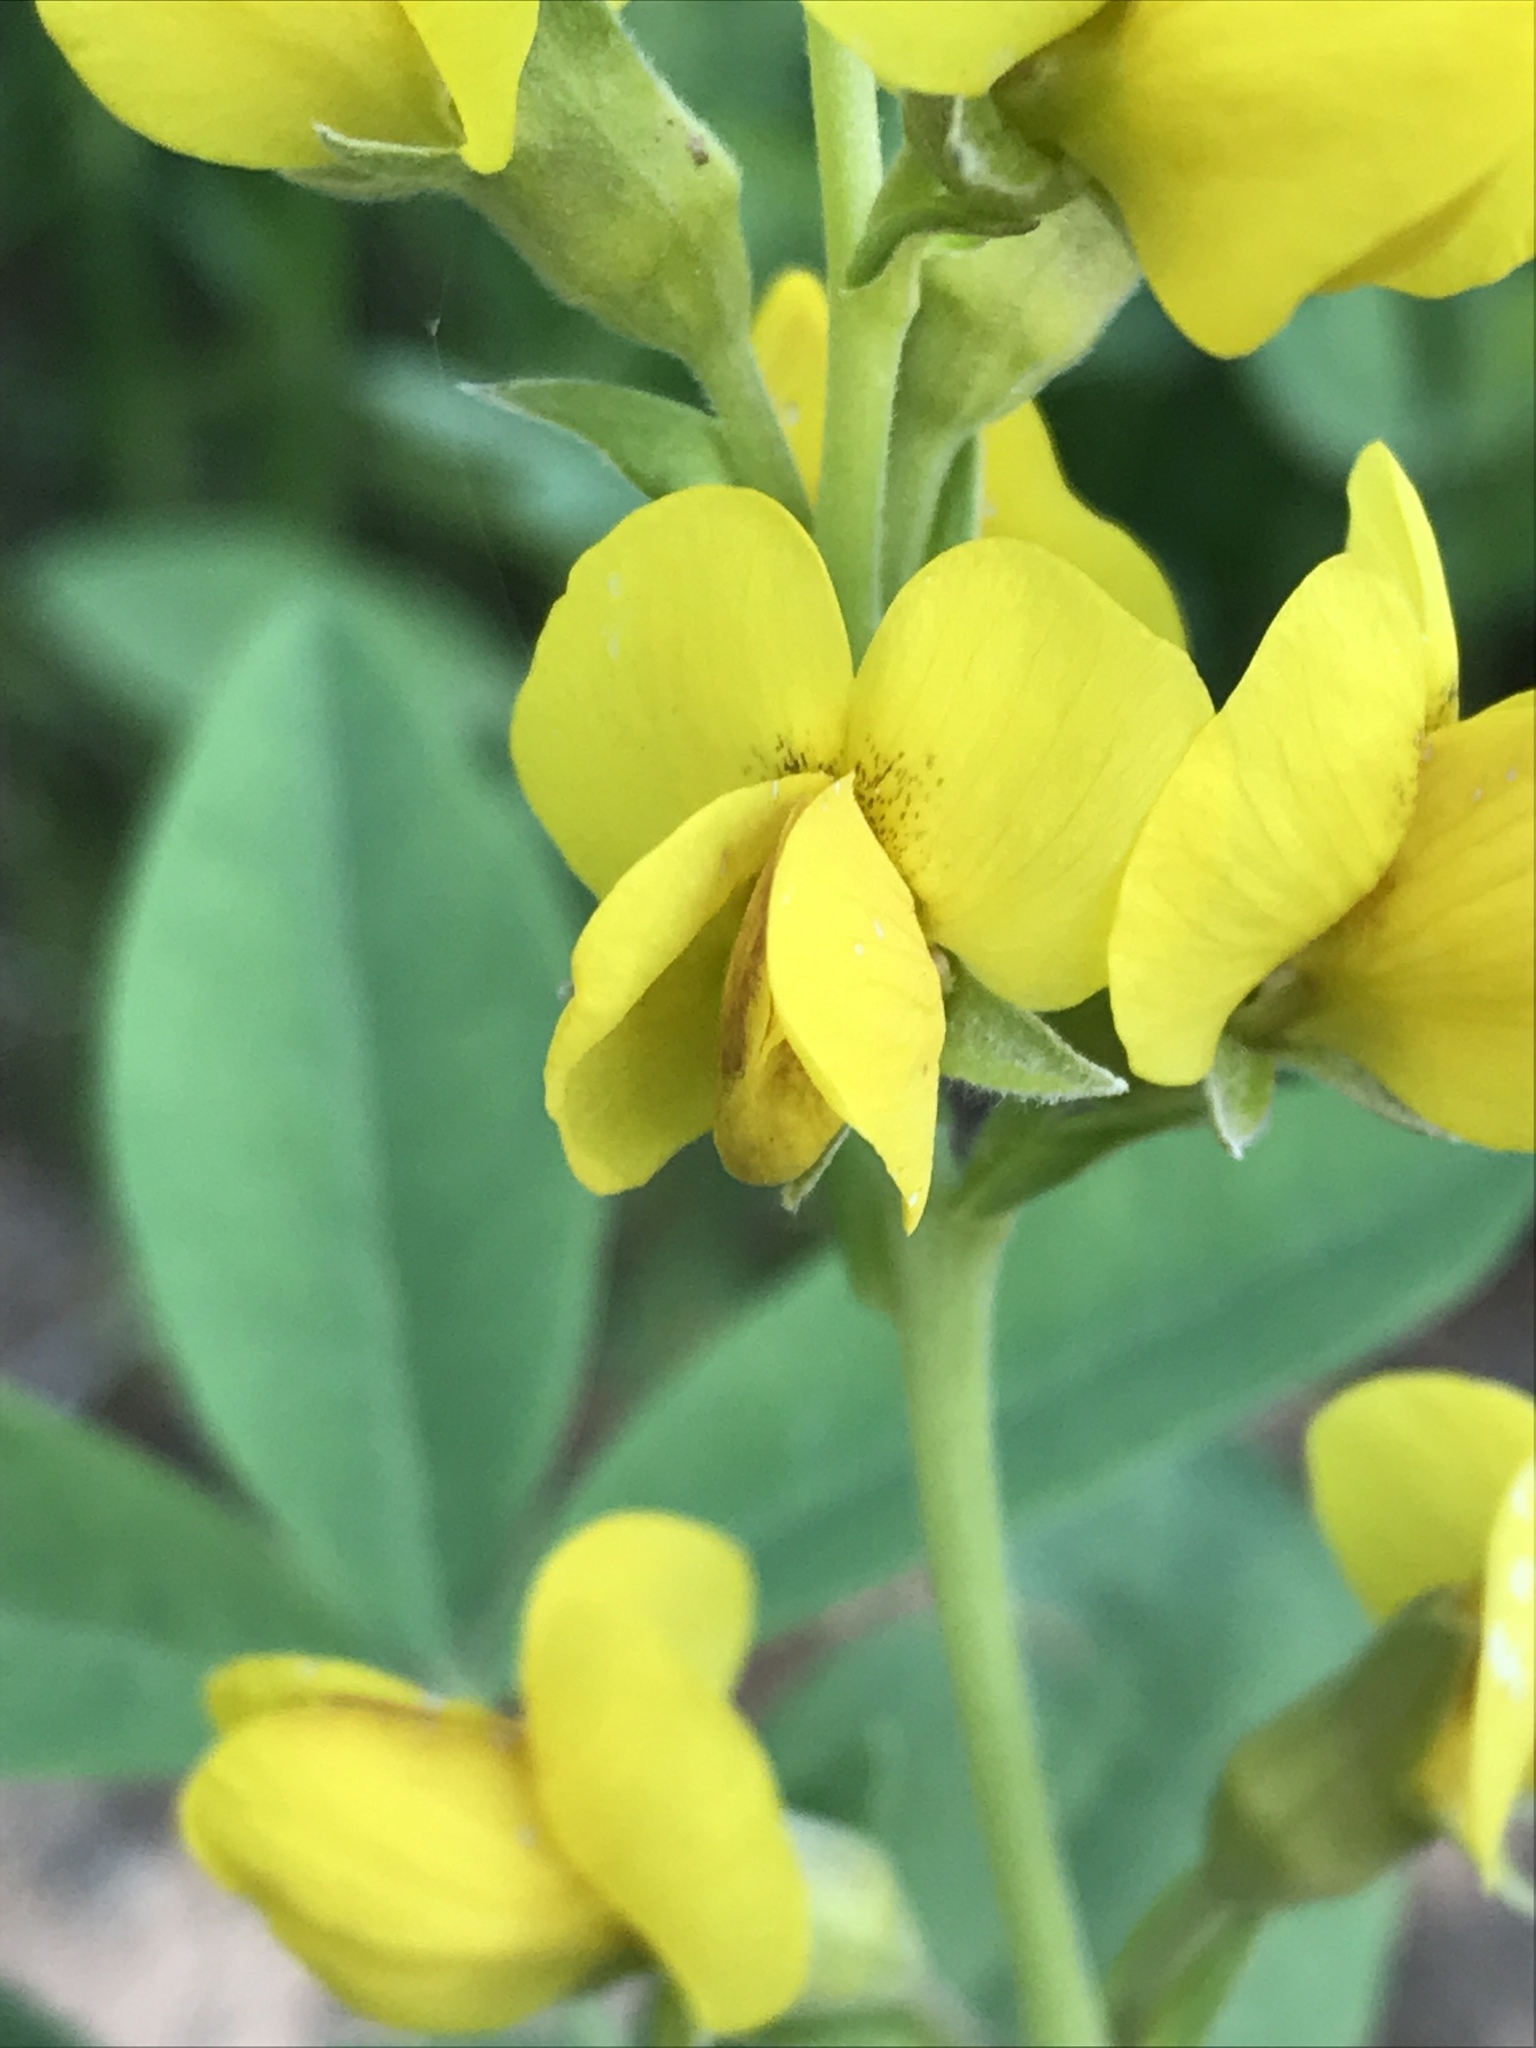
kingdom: Plantae
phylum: Tracheophyta
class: Magnoliopsida
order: Fabales
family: Fabaceae
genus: Thermopsis
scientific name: Thermopsis montana
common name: False lupin
